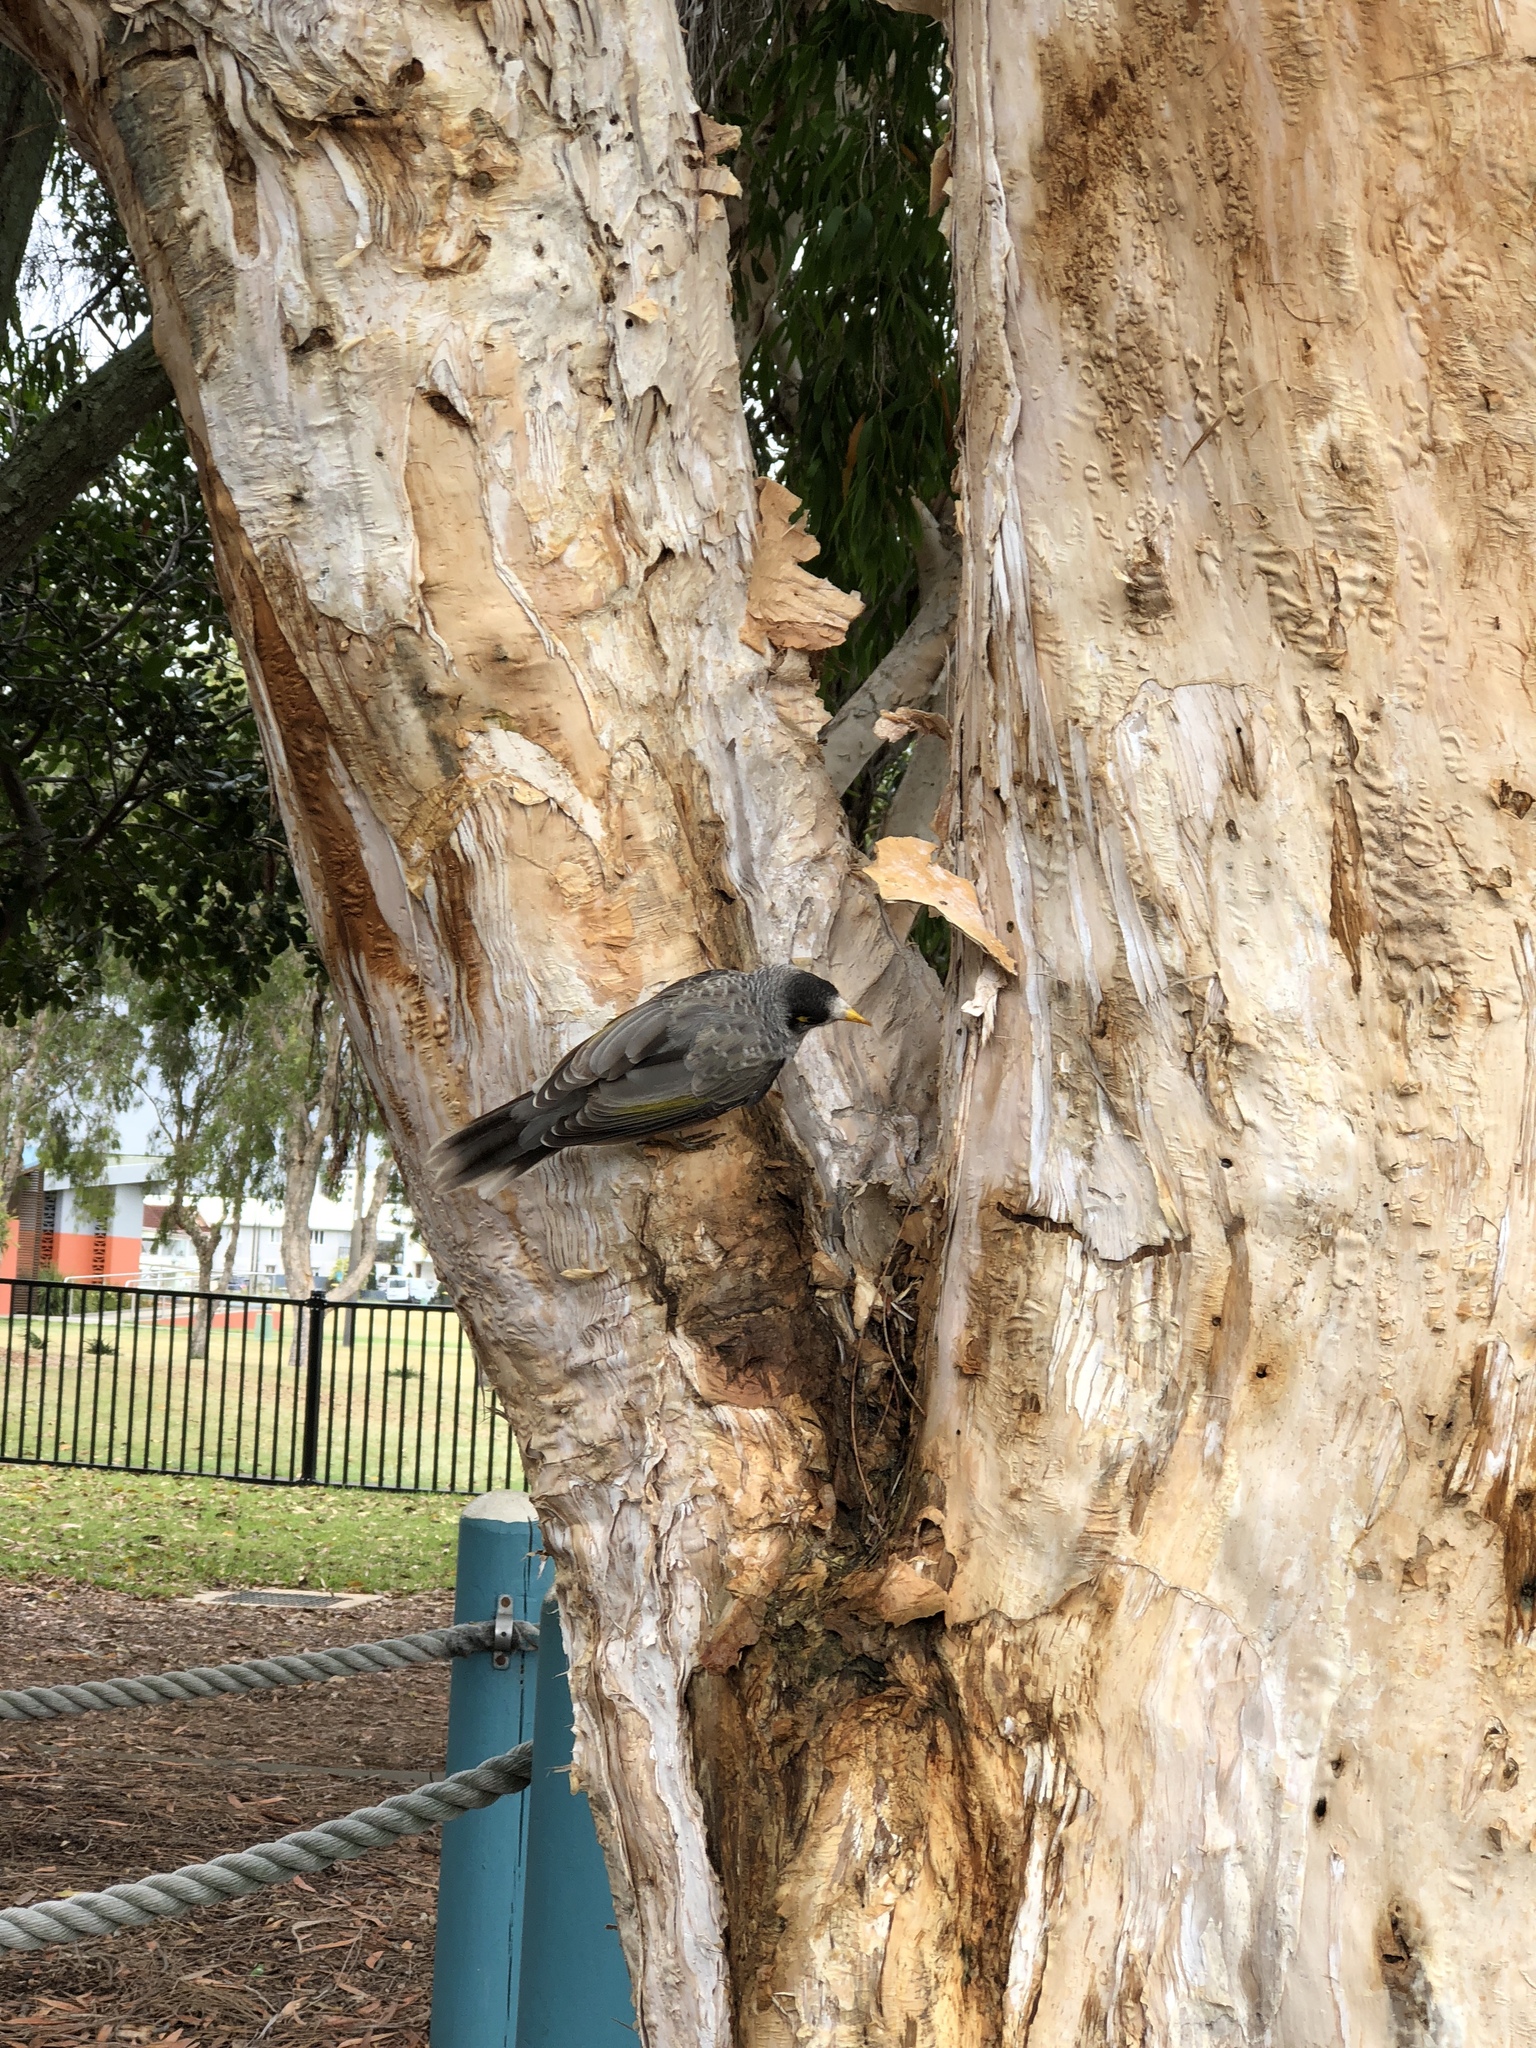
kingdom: Animalia
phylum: Chordata
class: Aves
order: Passeriformes
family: Meliphagidae
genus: Manorina
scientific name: Manorina melanocephala
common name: Noisy miner
